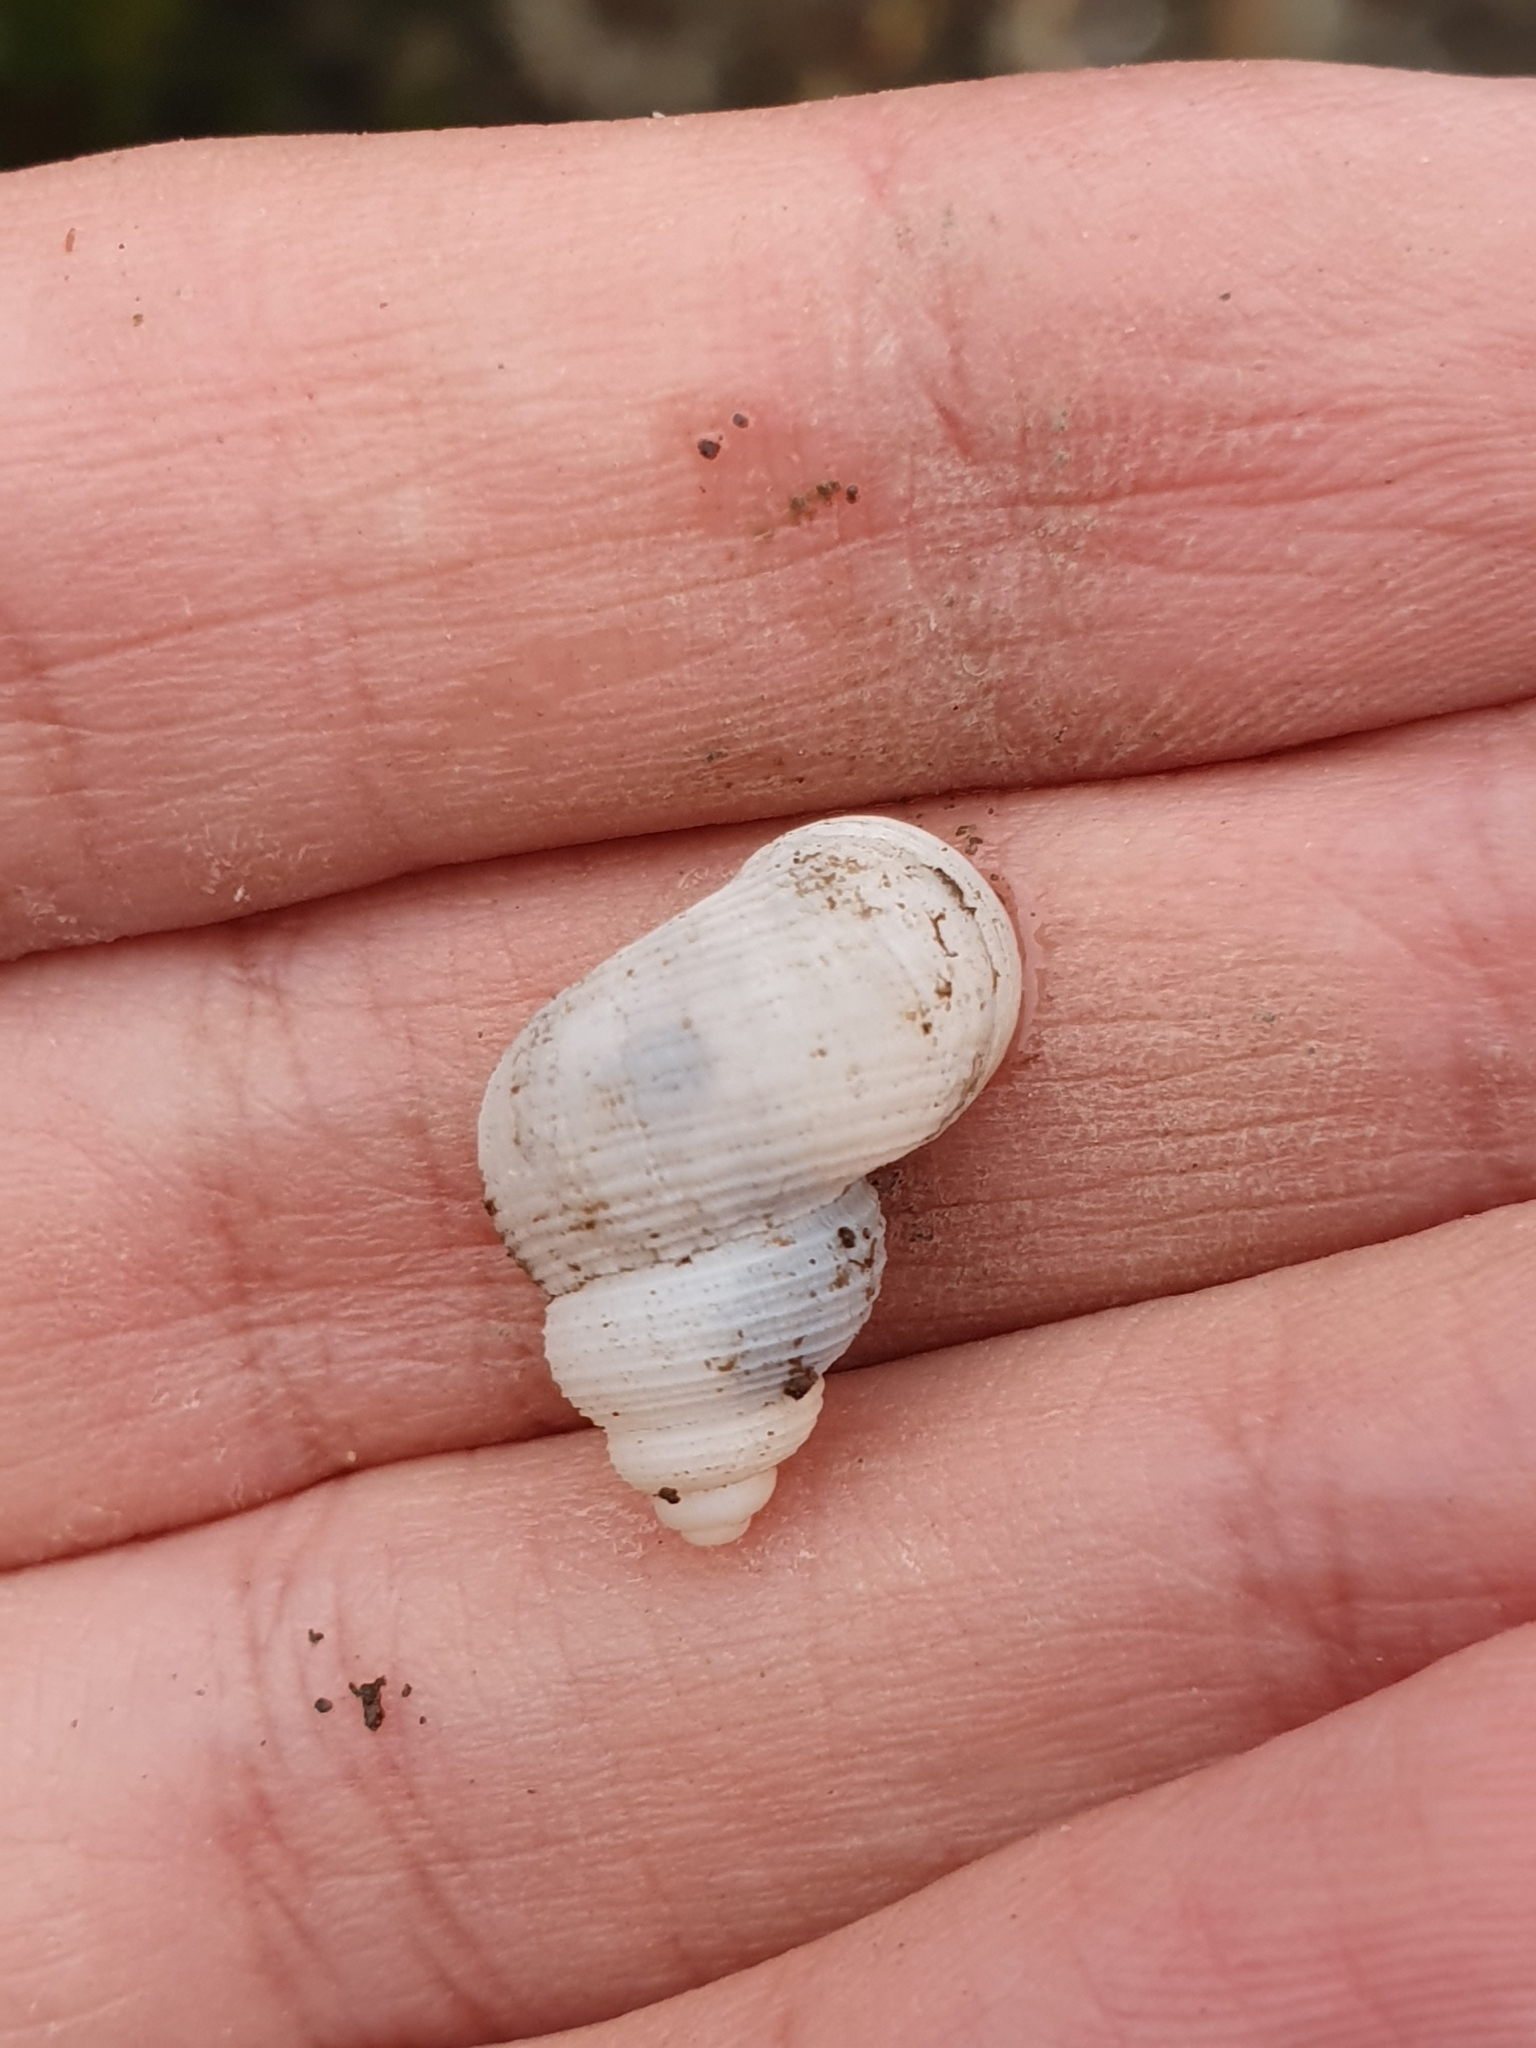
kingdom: Animalia
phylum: Mollusca
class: Gastropoda
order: Littorinimorpha
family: Pomatiidae
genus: Tudorella
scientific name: Tudorella sulcata
